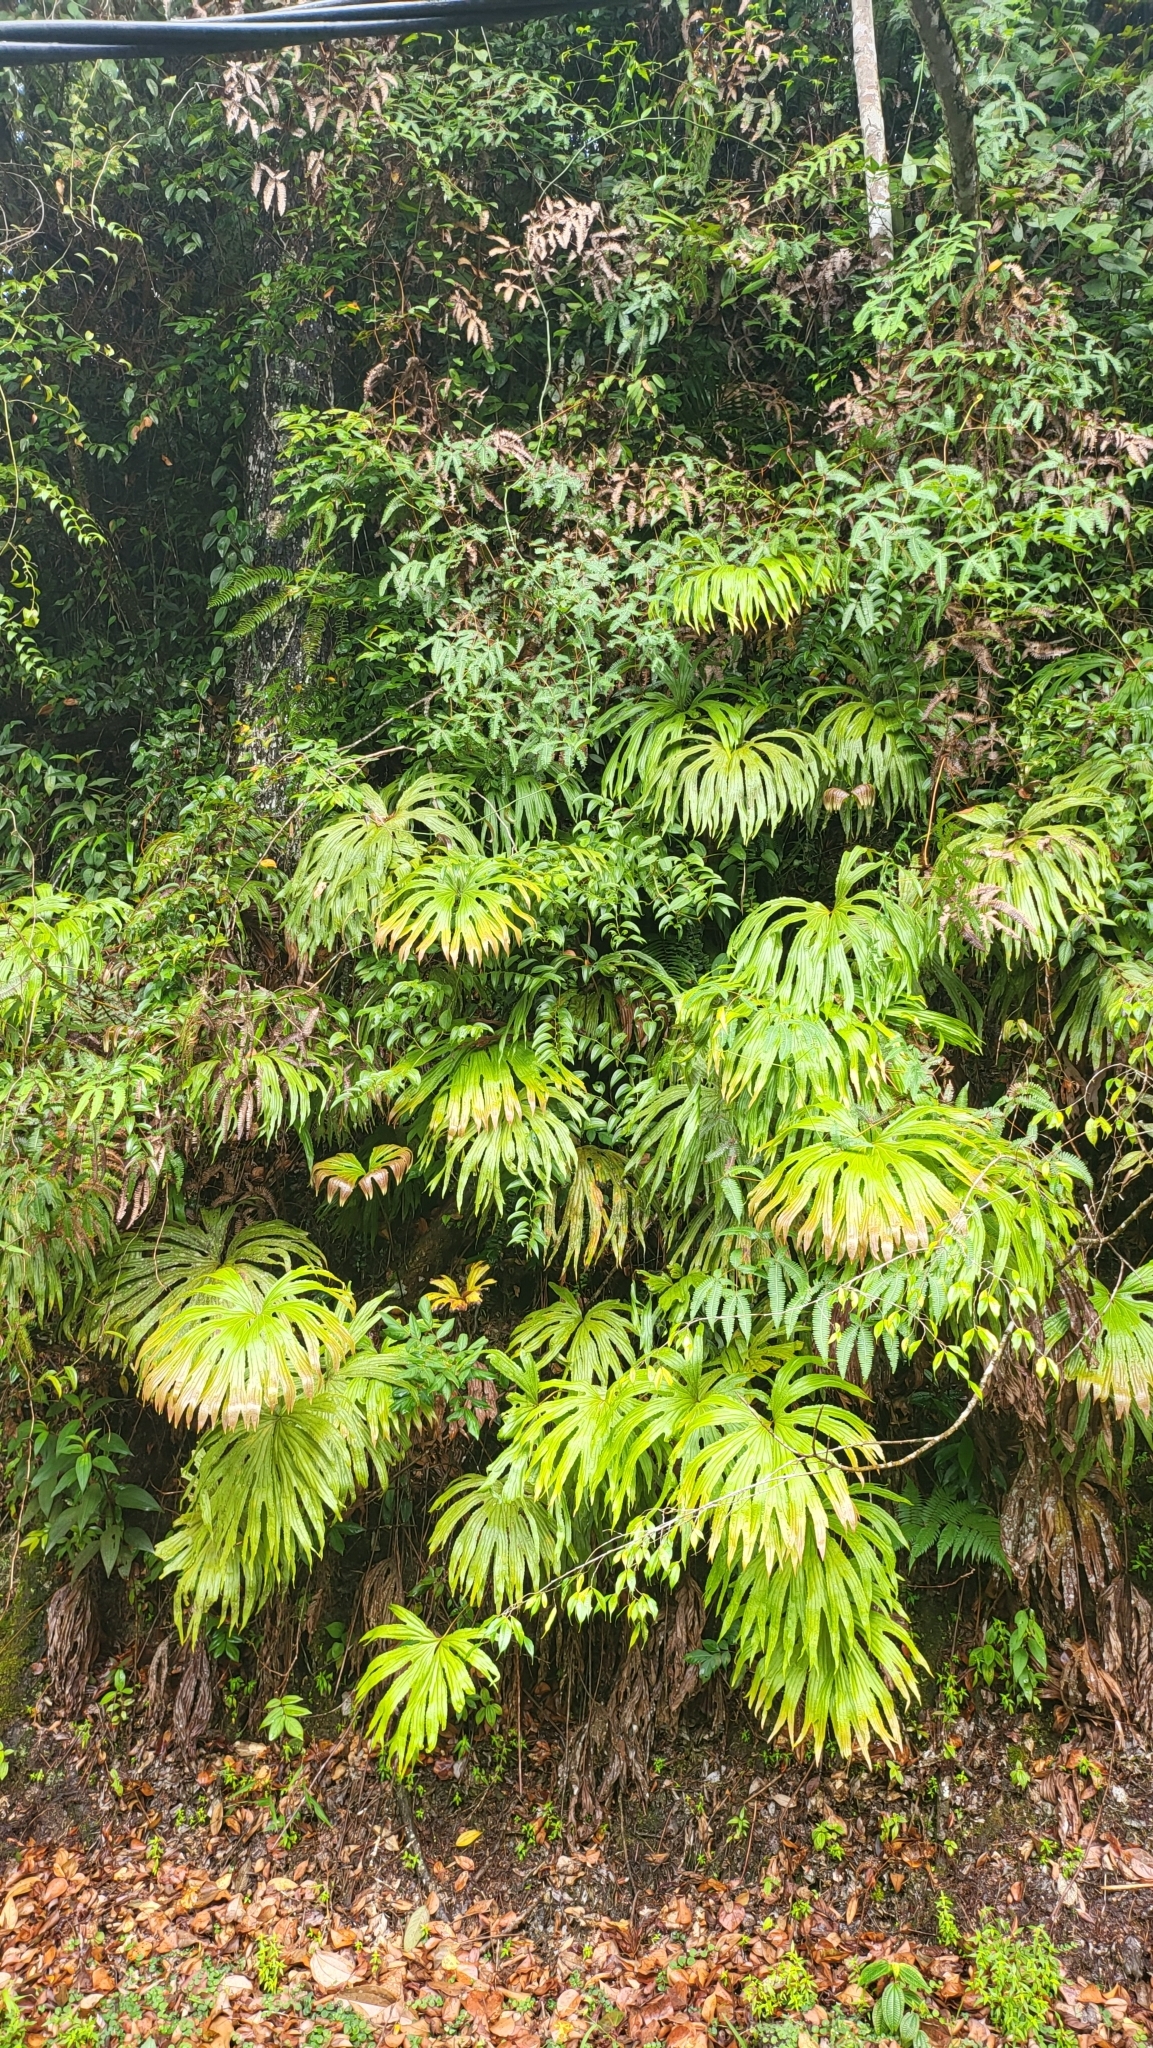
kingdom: Plantae
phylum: Tracheophyta
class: Polypodiopsida
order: Gleicheniales
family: Dipteridaceae
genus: Dipteris
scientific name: Dipteris conjugata
